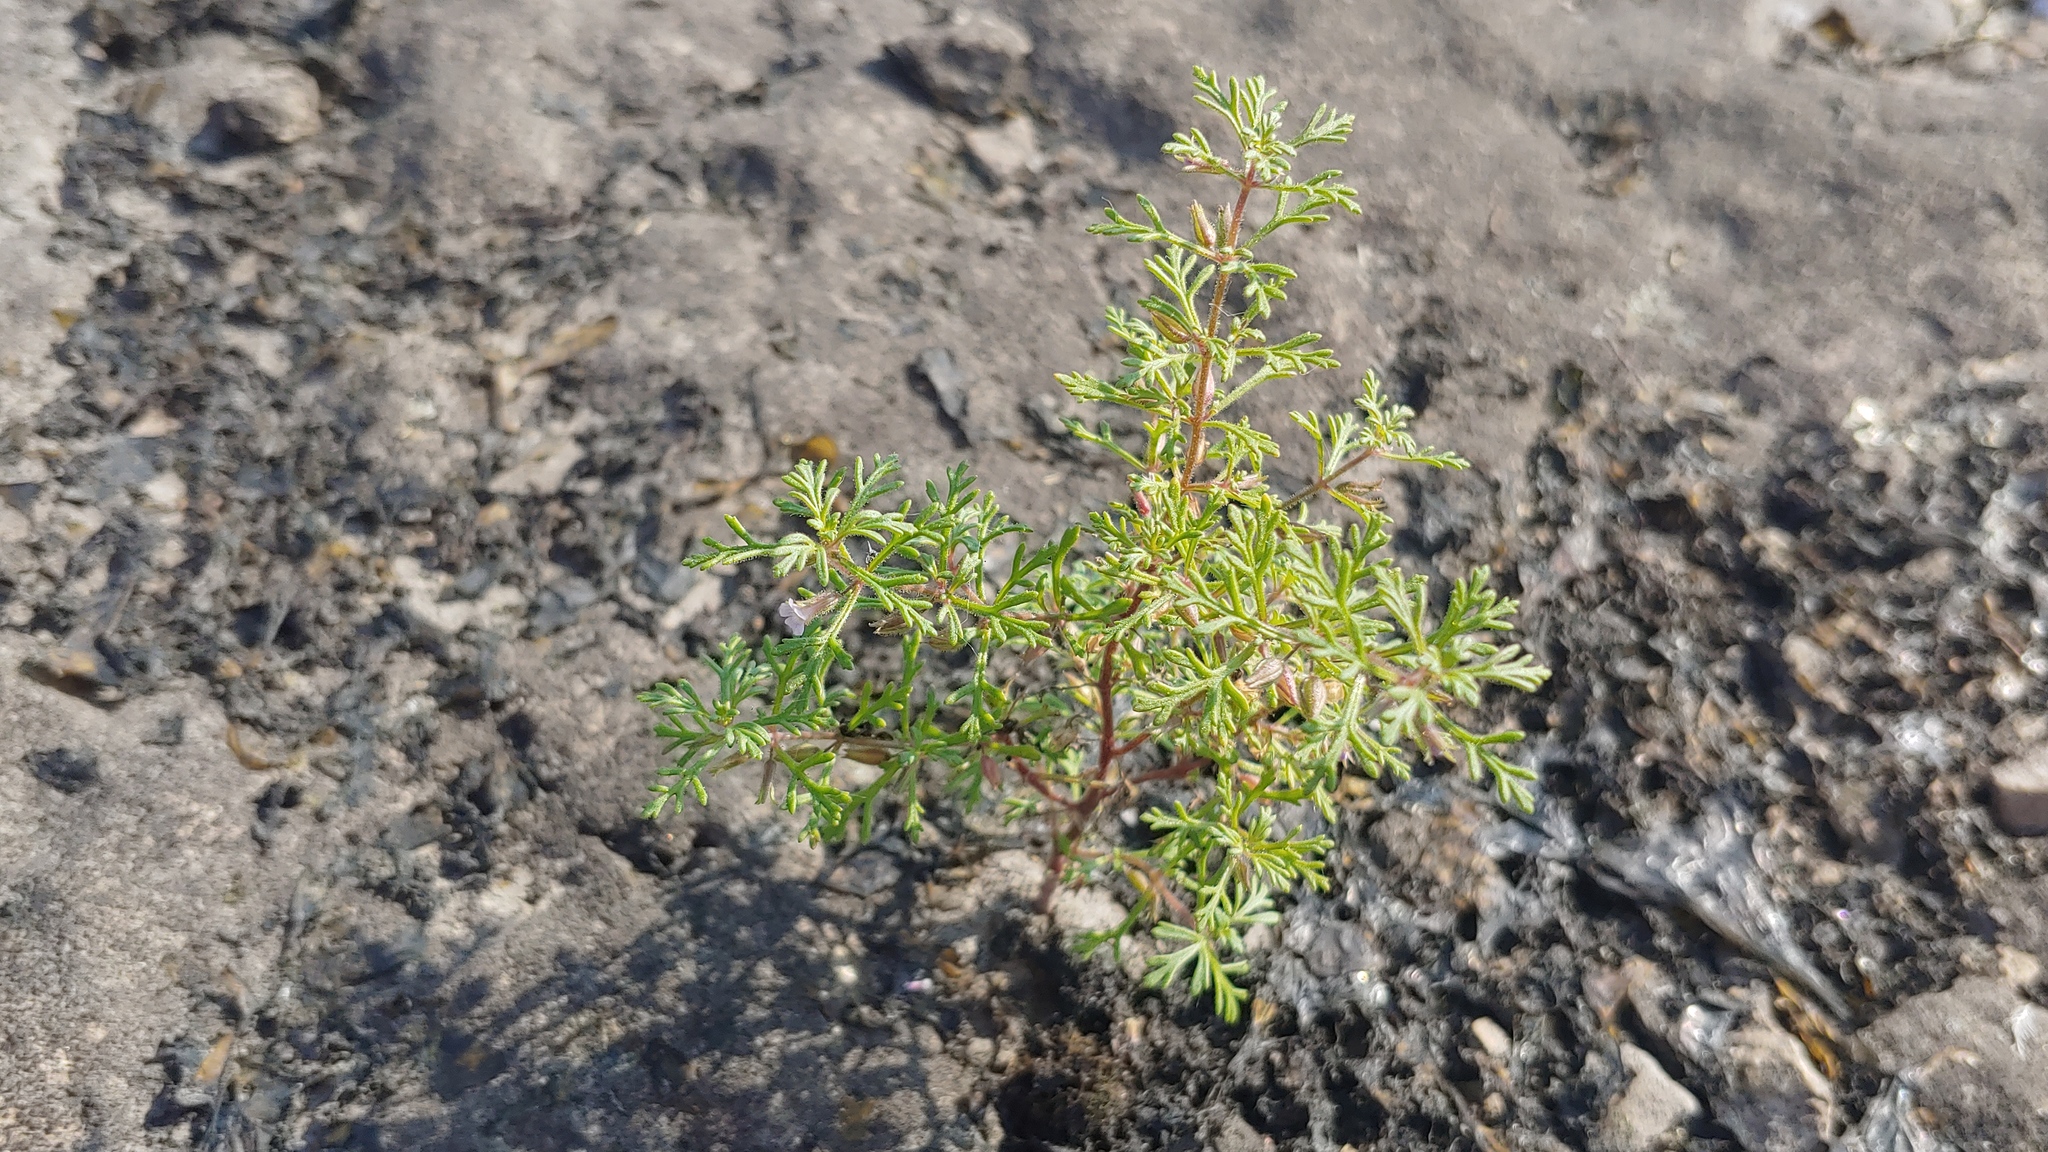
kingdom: Plantae
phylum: Tracheophyta
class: Magnoliopsida
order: Lamiales
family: Plantaginaceae
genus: Leucospora
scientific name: Leucospora multifida
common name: Narrow-leaf paleseed
